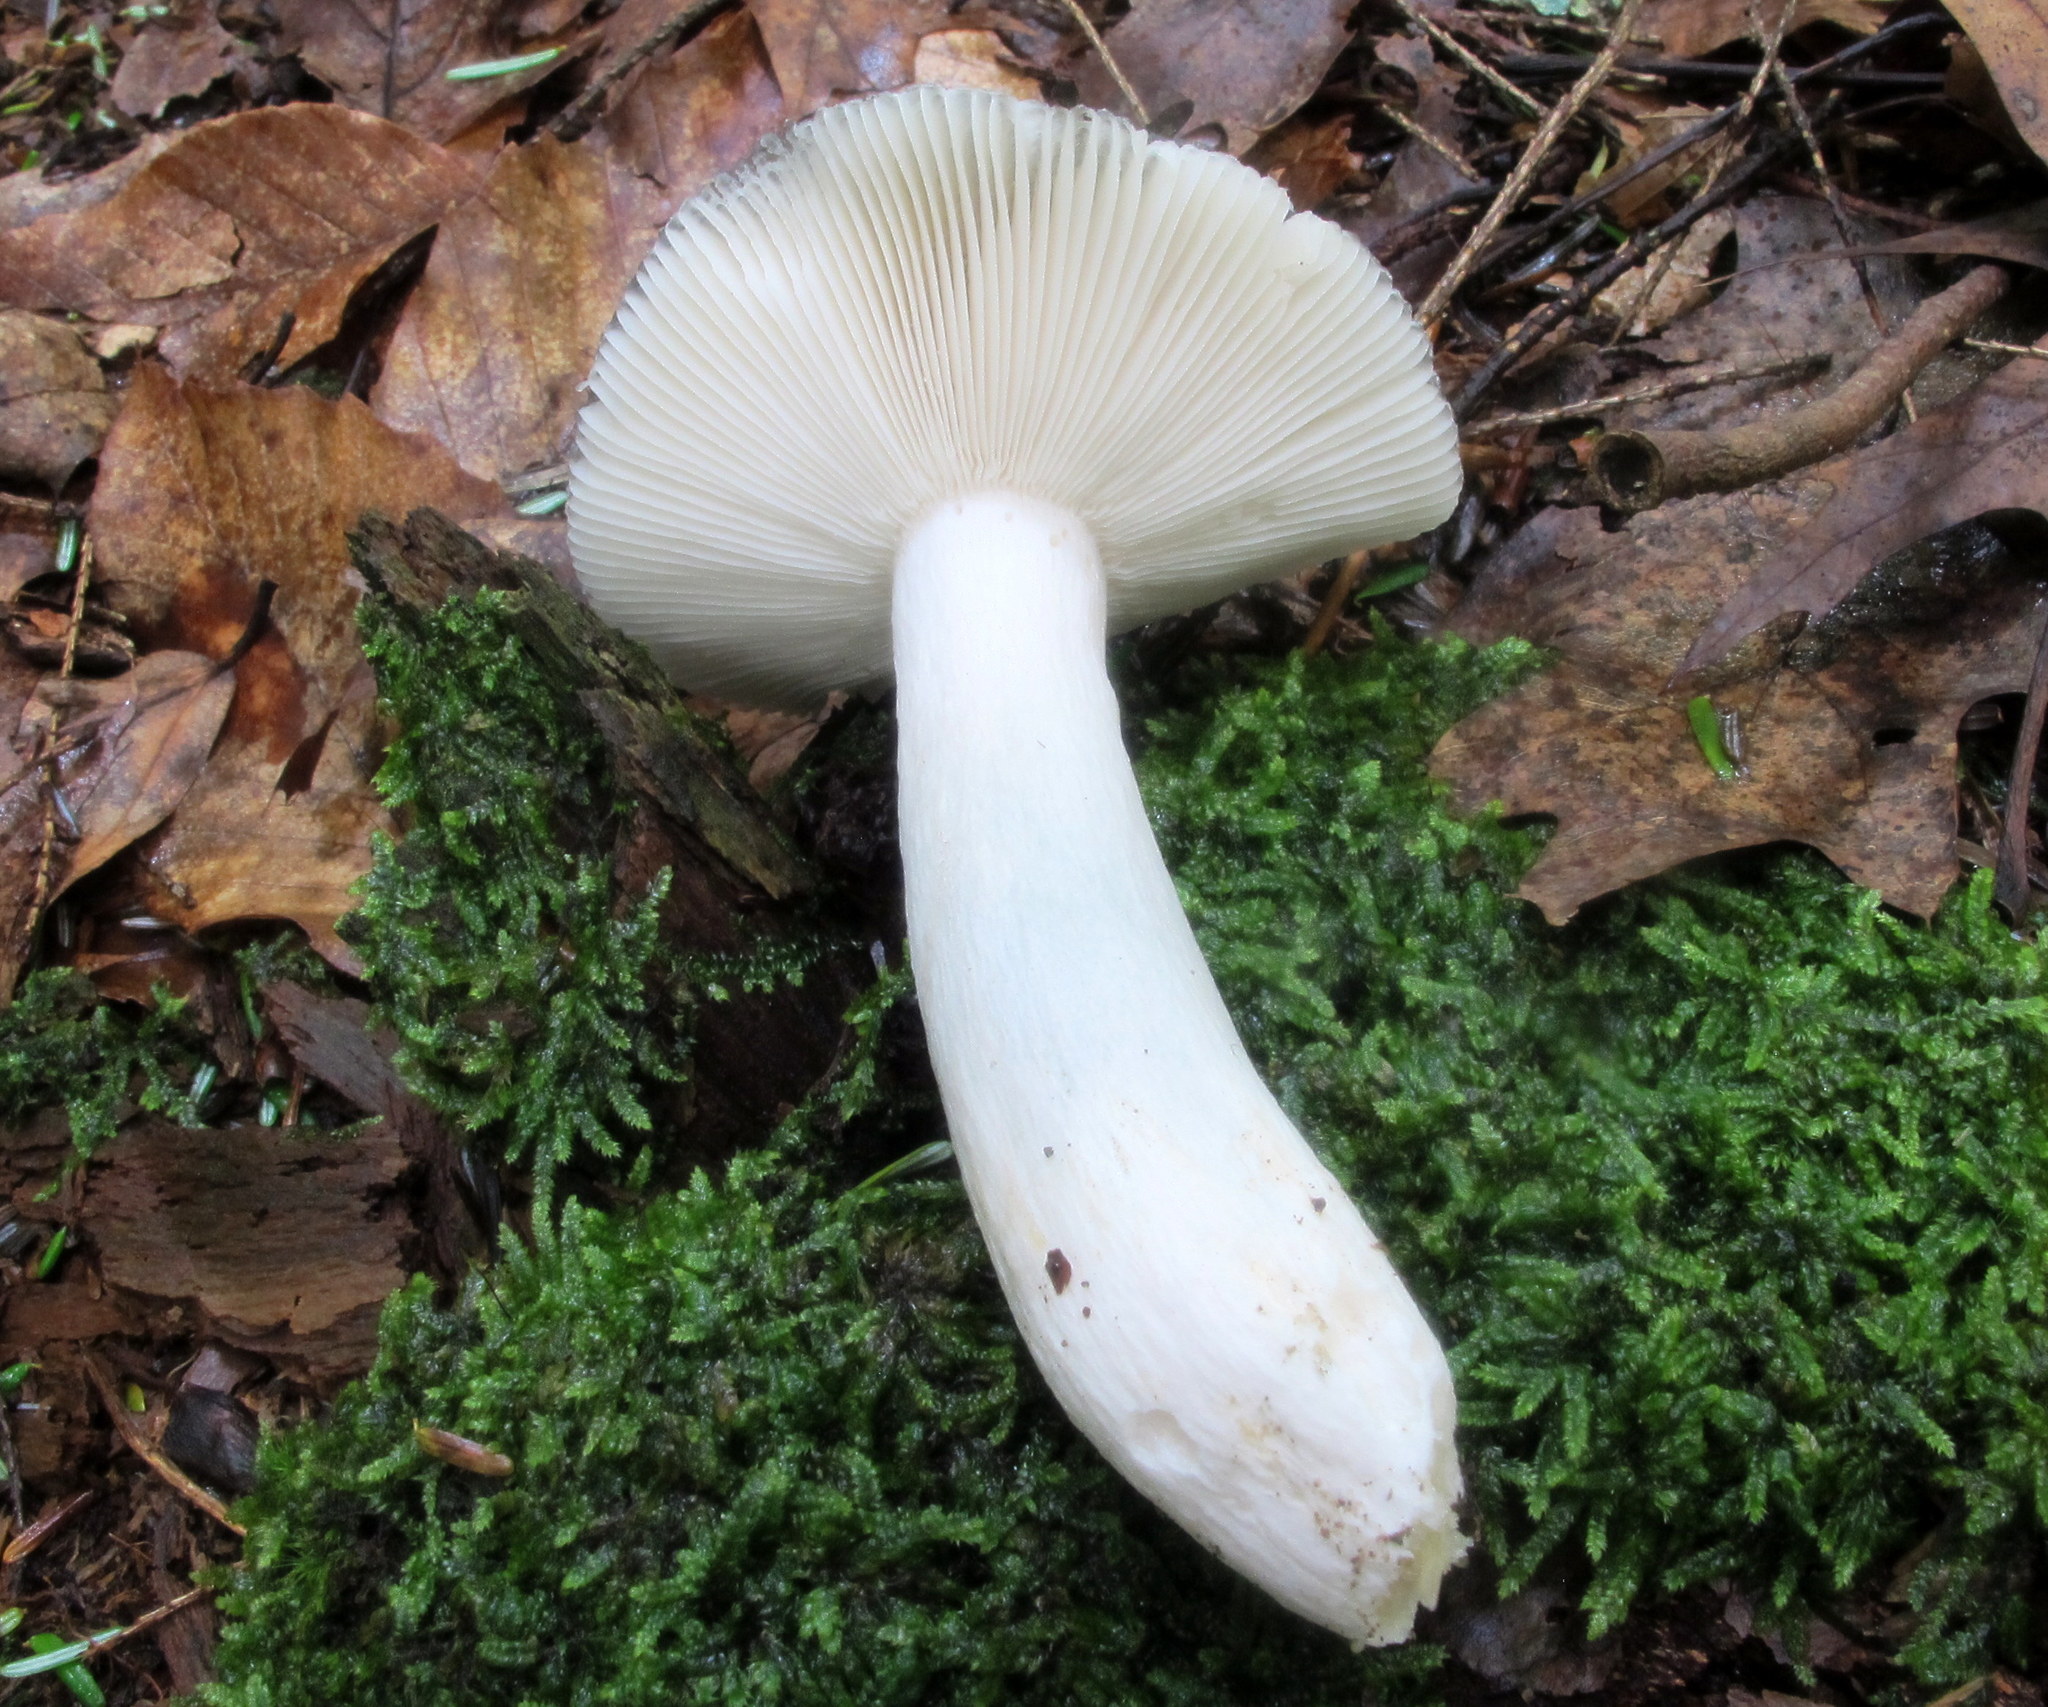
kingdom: Fungi
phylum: Basidiomycota
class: Agaricomycetes
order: Russulales
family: Russulaceae
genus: Russula
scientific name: Russula redolens
